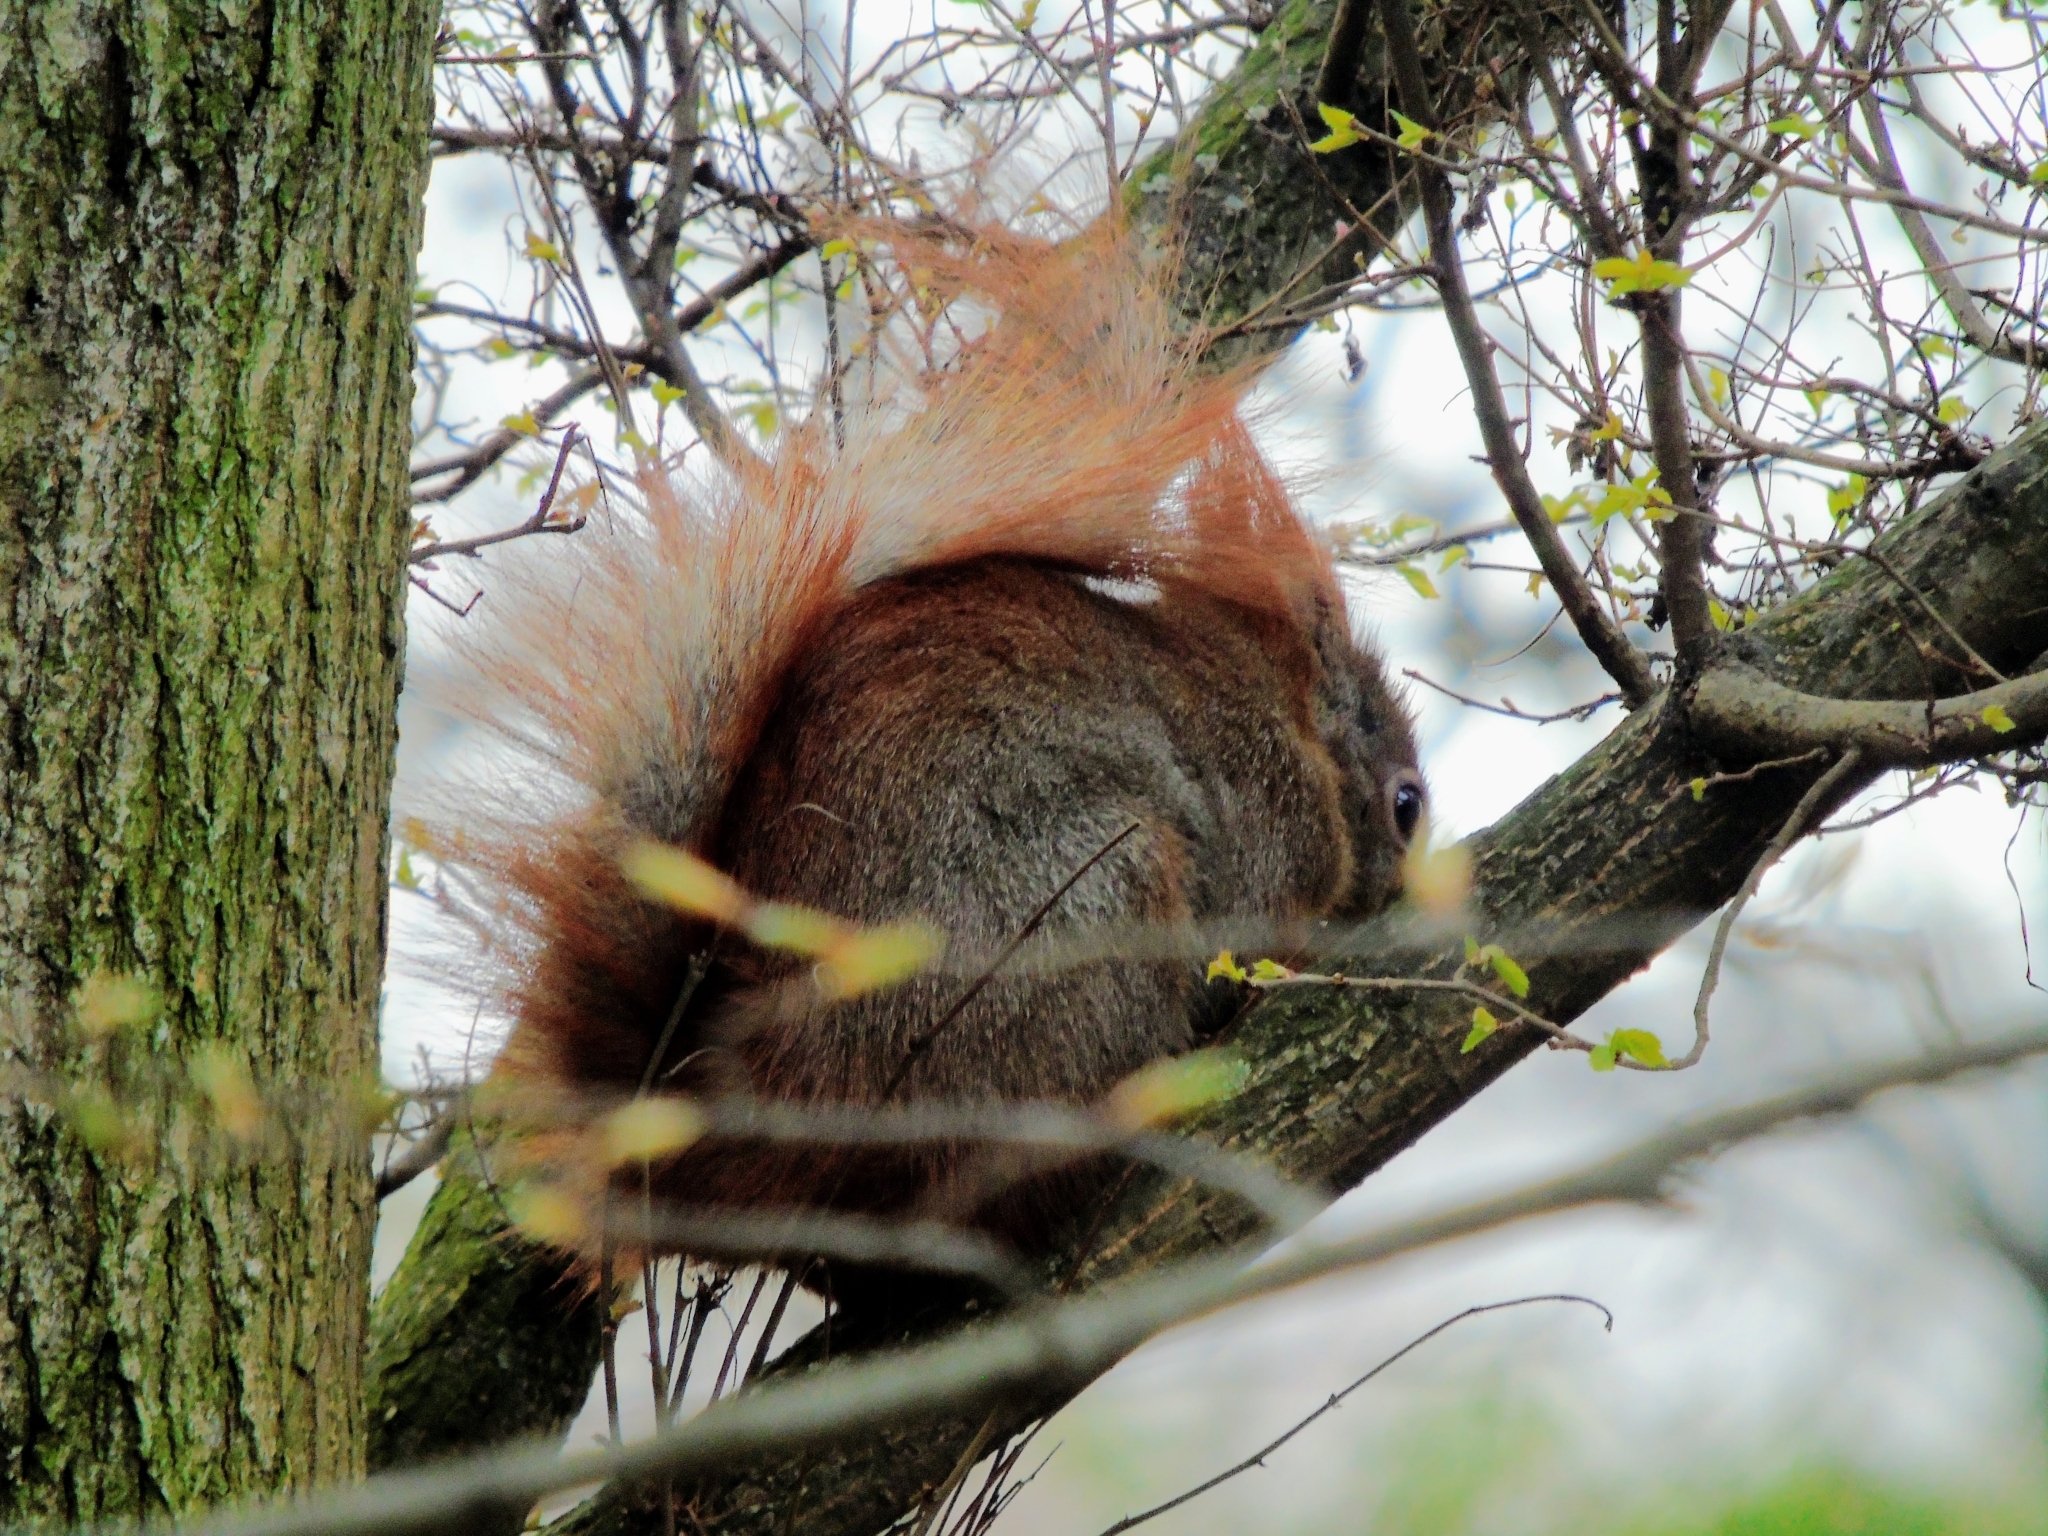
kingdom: Animalia
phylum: Chordata
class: Mammalia
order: Rodentia
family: Sciuridae
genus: Sciurus
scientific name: Sciurus vulgaris
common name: Eurasian red squirrel
